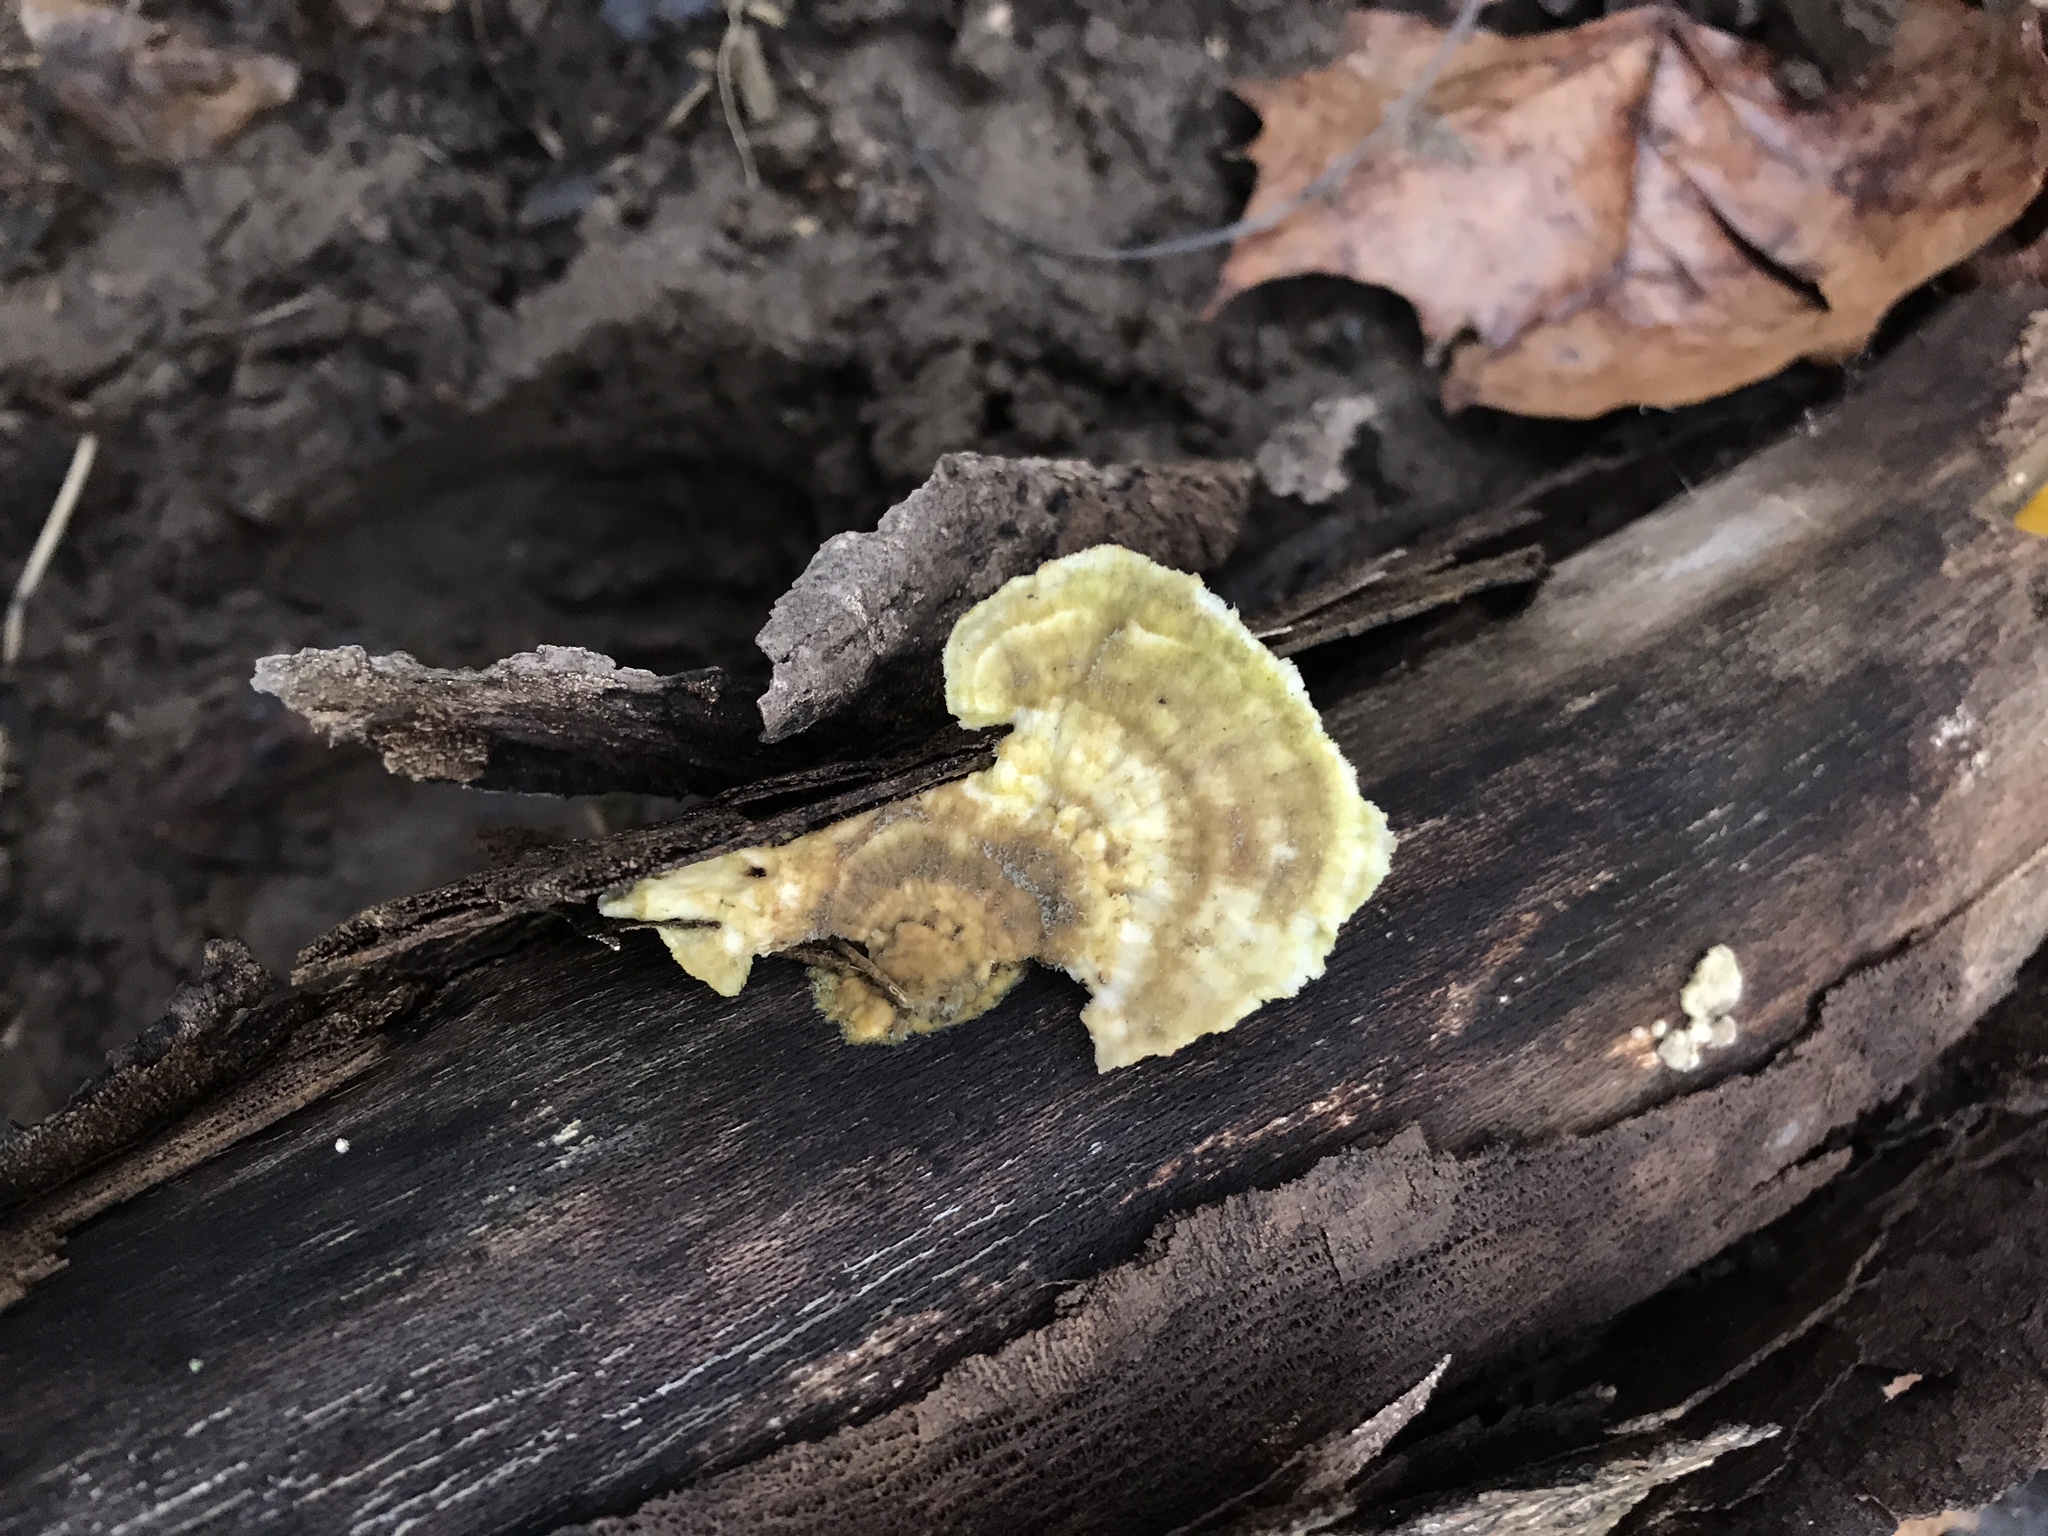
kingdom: Fungi
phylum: Basidiomycota
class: Agaricomycetes
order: Polyporales
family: Polyporaceae
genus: Trametes
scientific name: Trametes
